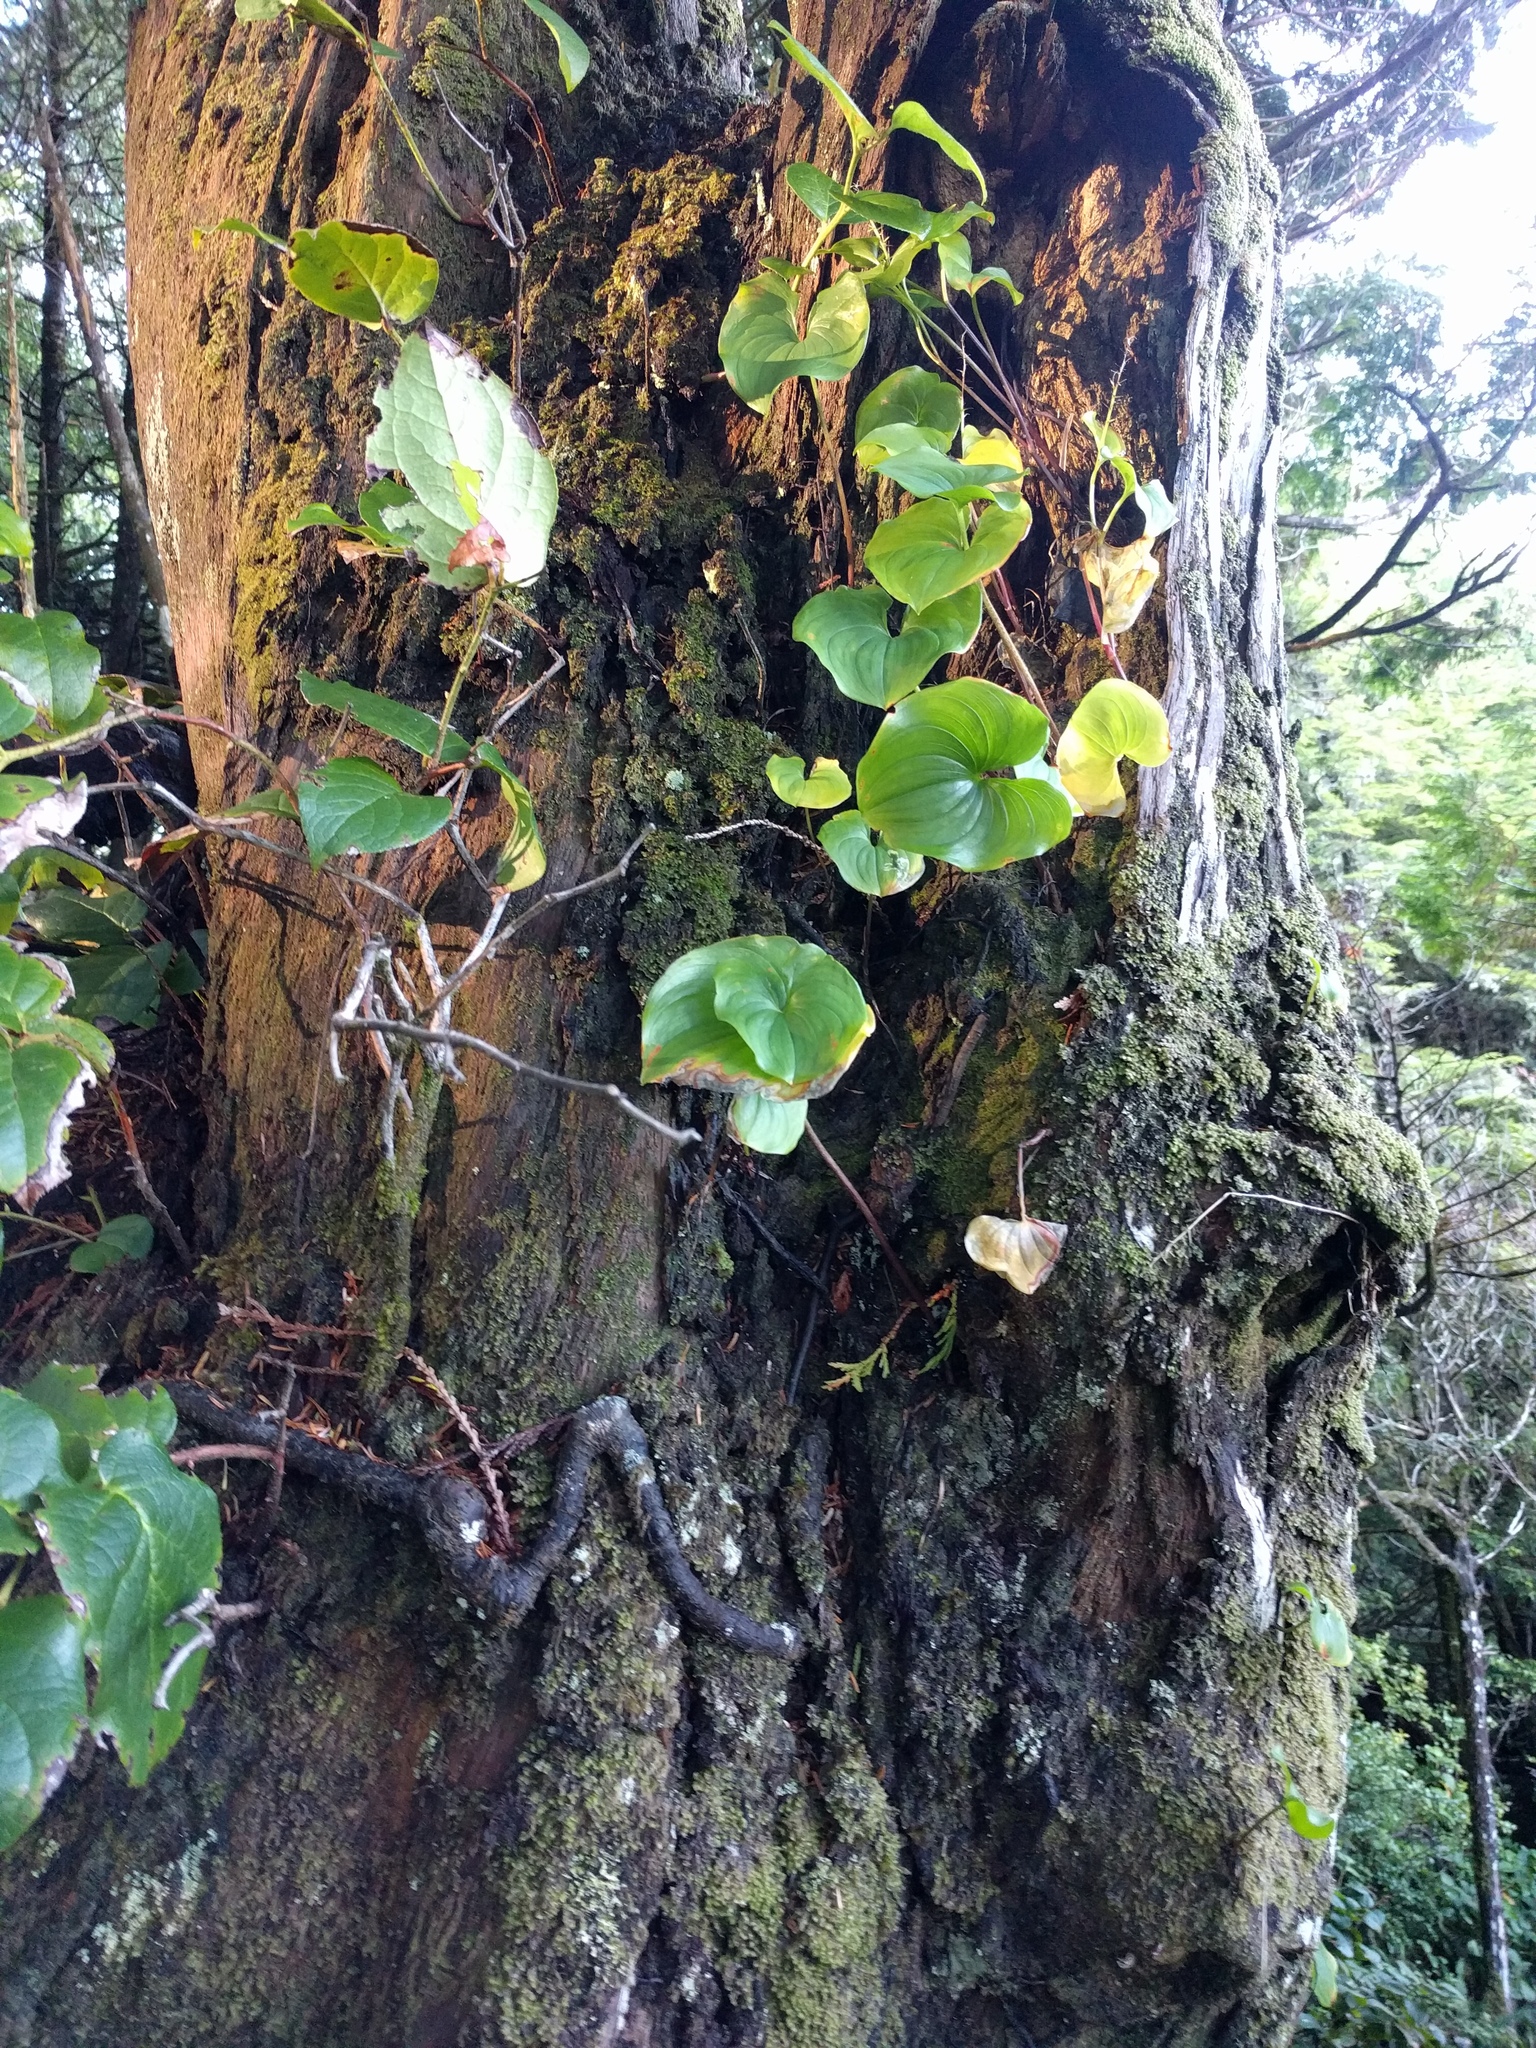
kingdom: Plantae
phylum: Tracheophyta
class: Liliopsida
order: Asparagales
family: Asparagaceae
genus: Maianthemum
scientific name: Maianthemum dilatatum
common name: False lily-of-the-valley
